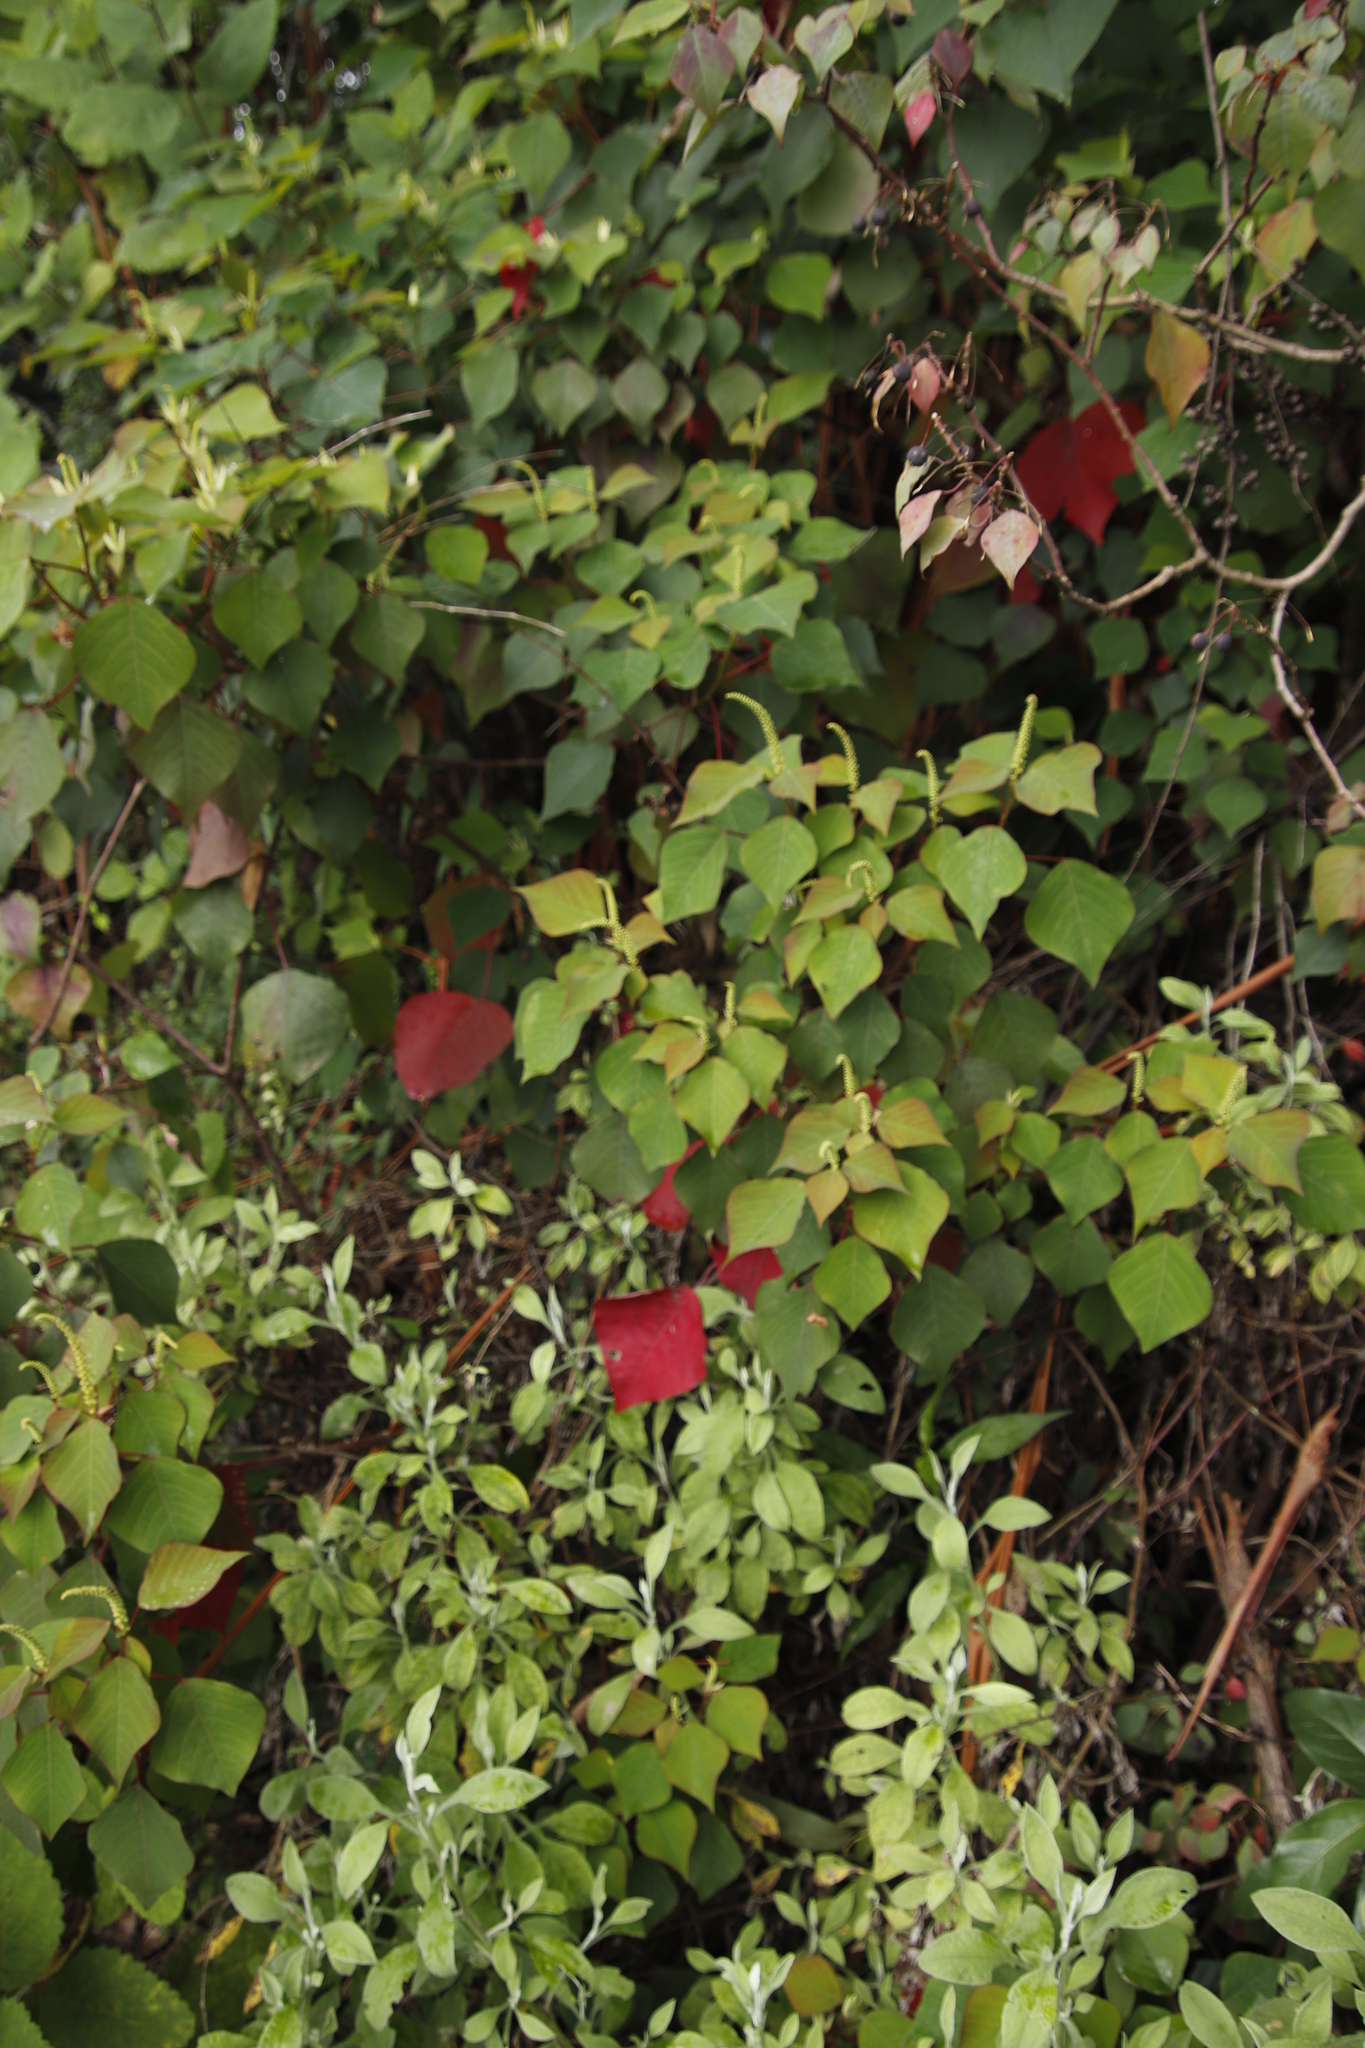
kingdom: Plantae
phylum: Tracheophyta
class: Magnoliopsida
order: Malpighiales
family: Euphorbiaceae
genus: Homalanthus
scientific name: Homalanthus populifolius
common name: Queensland poplar
